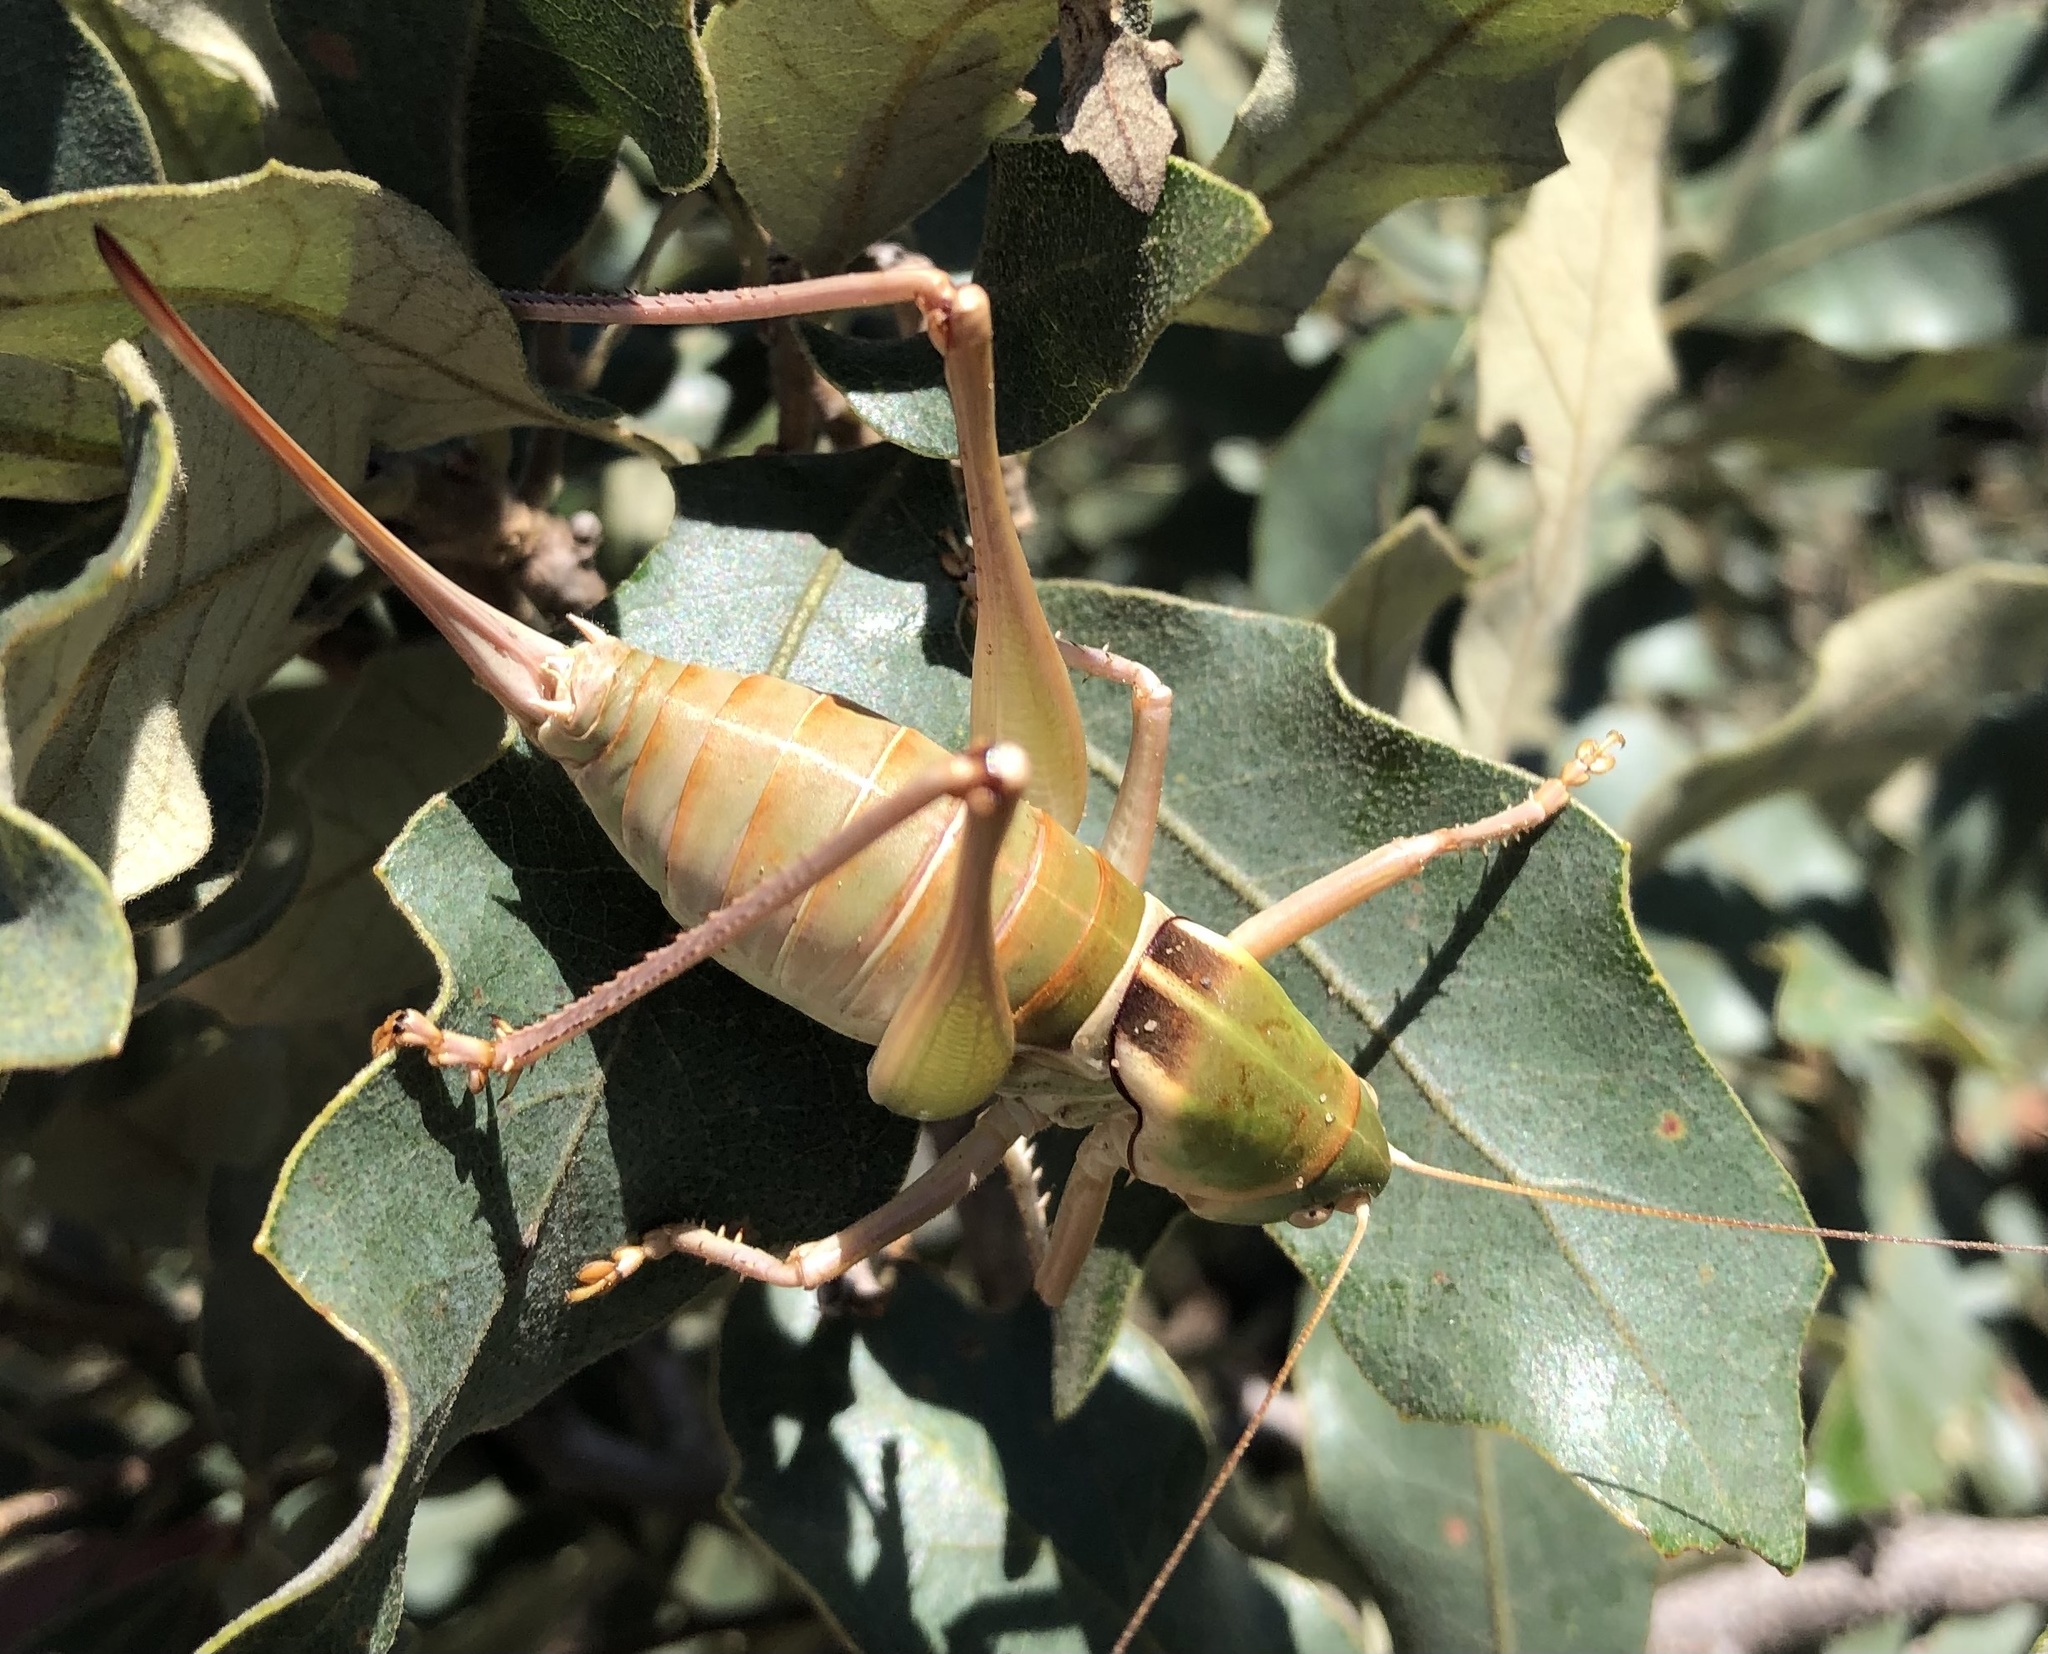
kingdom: Animalia
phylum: Arthropoda
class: Insecta
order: Orthoptera
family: Tettigoniidae
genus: Pediodectes
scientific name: Pediodectes haldemanii
